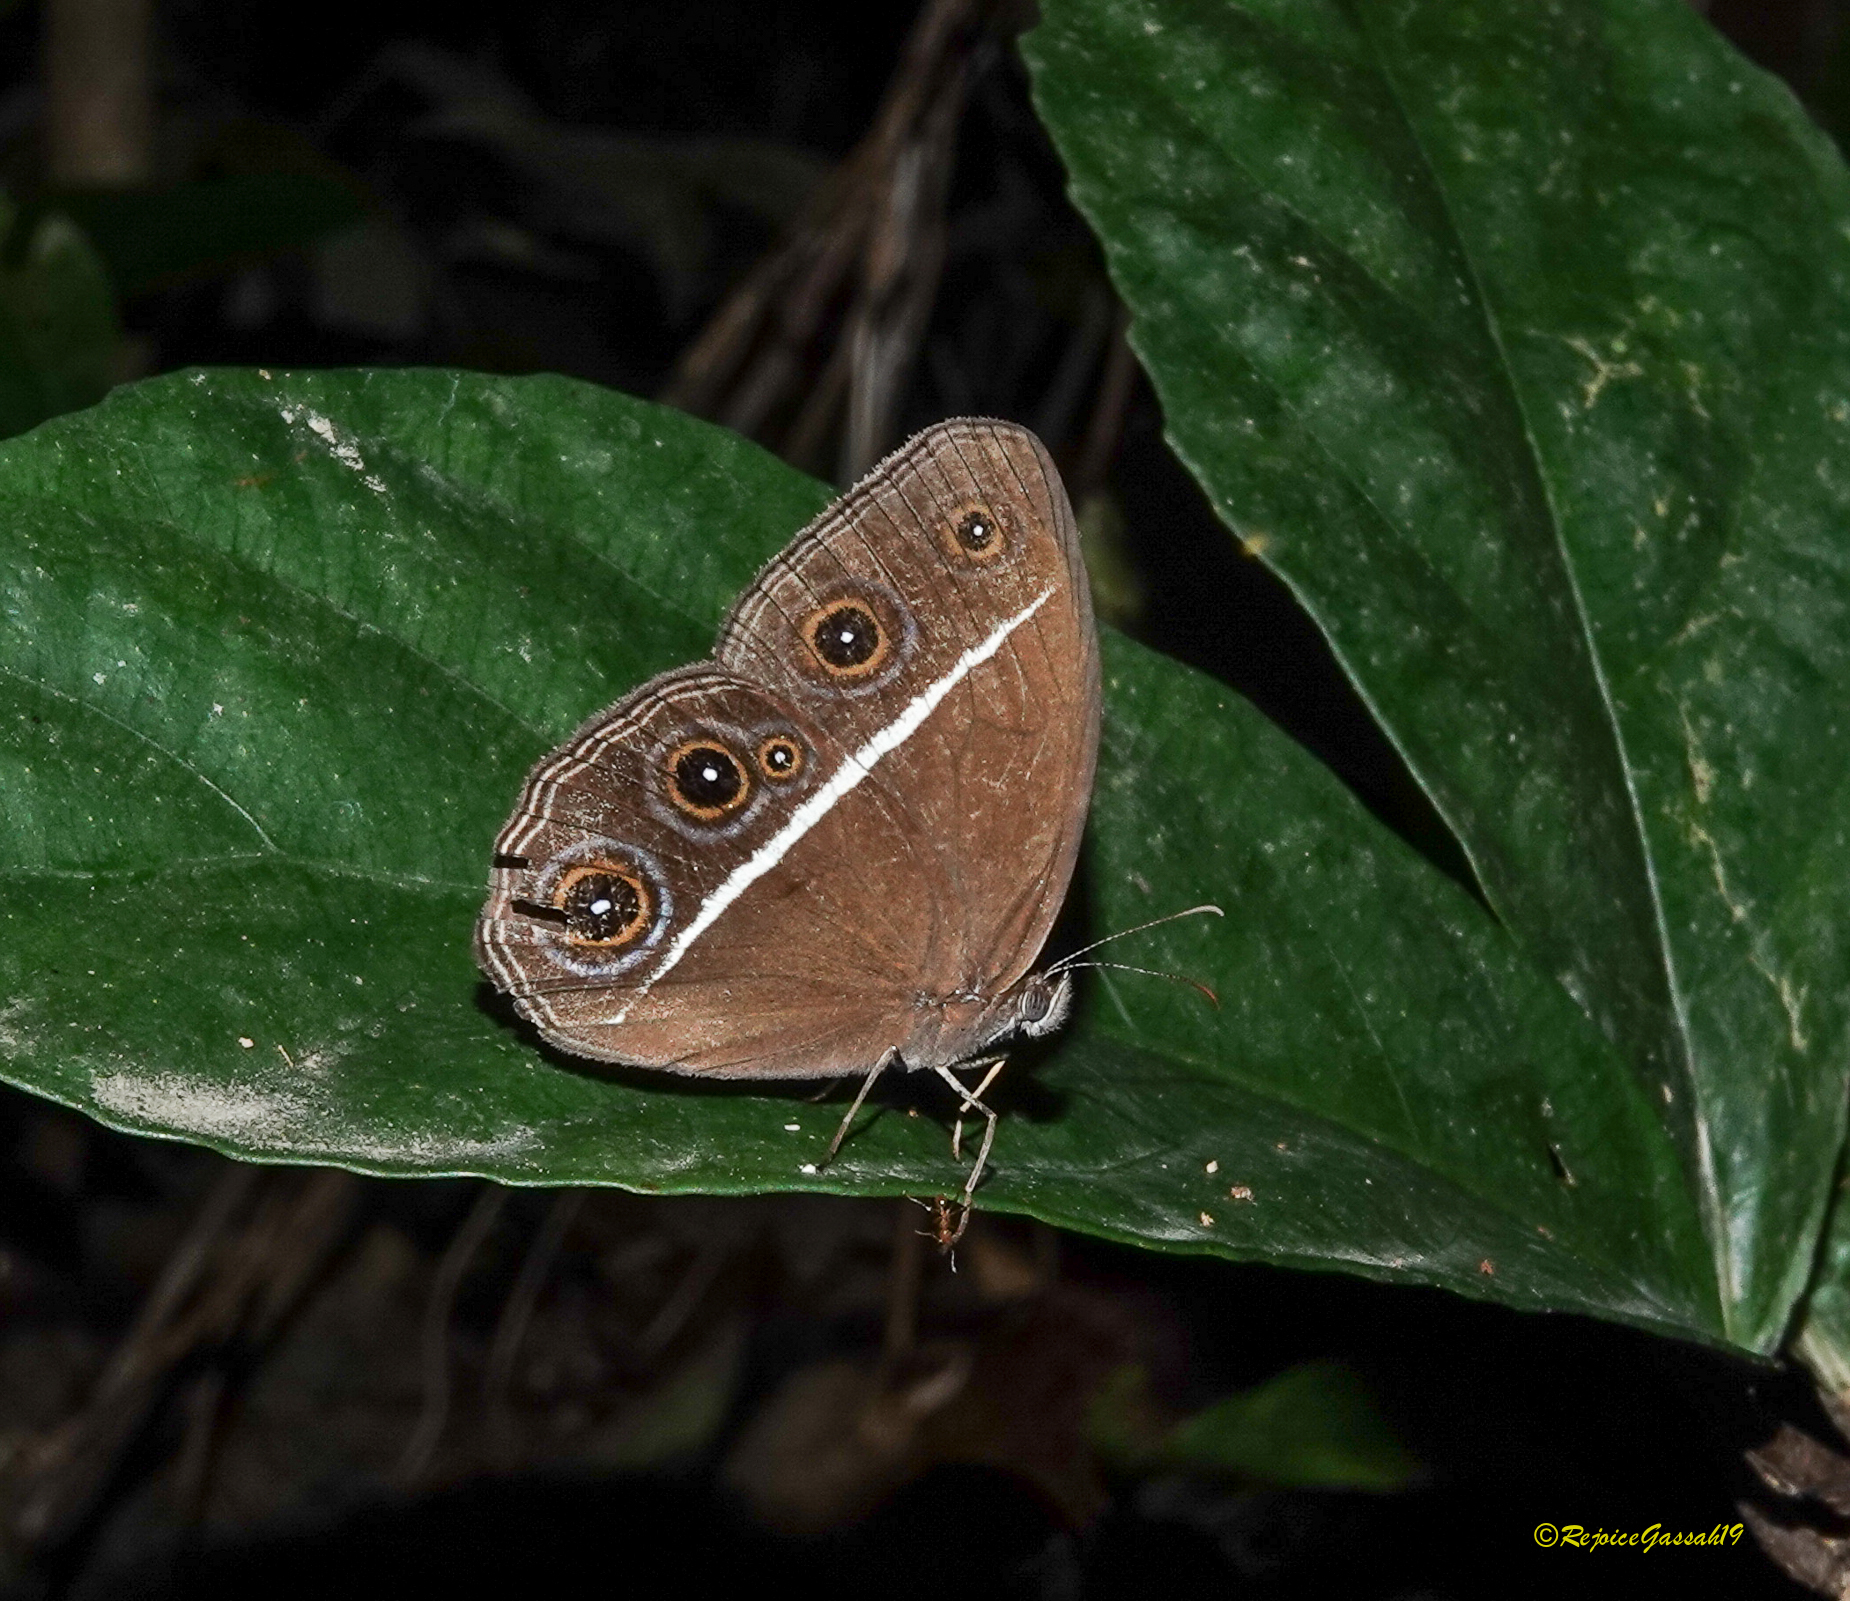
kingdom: Animalia
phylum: Arthropoda
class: Insecta
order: Lepidoptera
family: Nymphalidae
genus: Orsotriaena
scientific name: Orsotriaena medus
